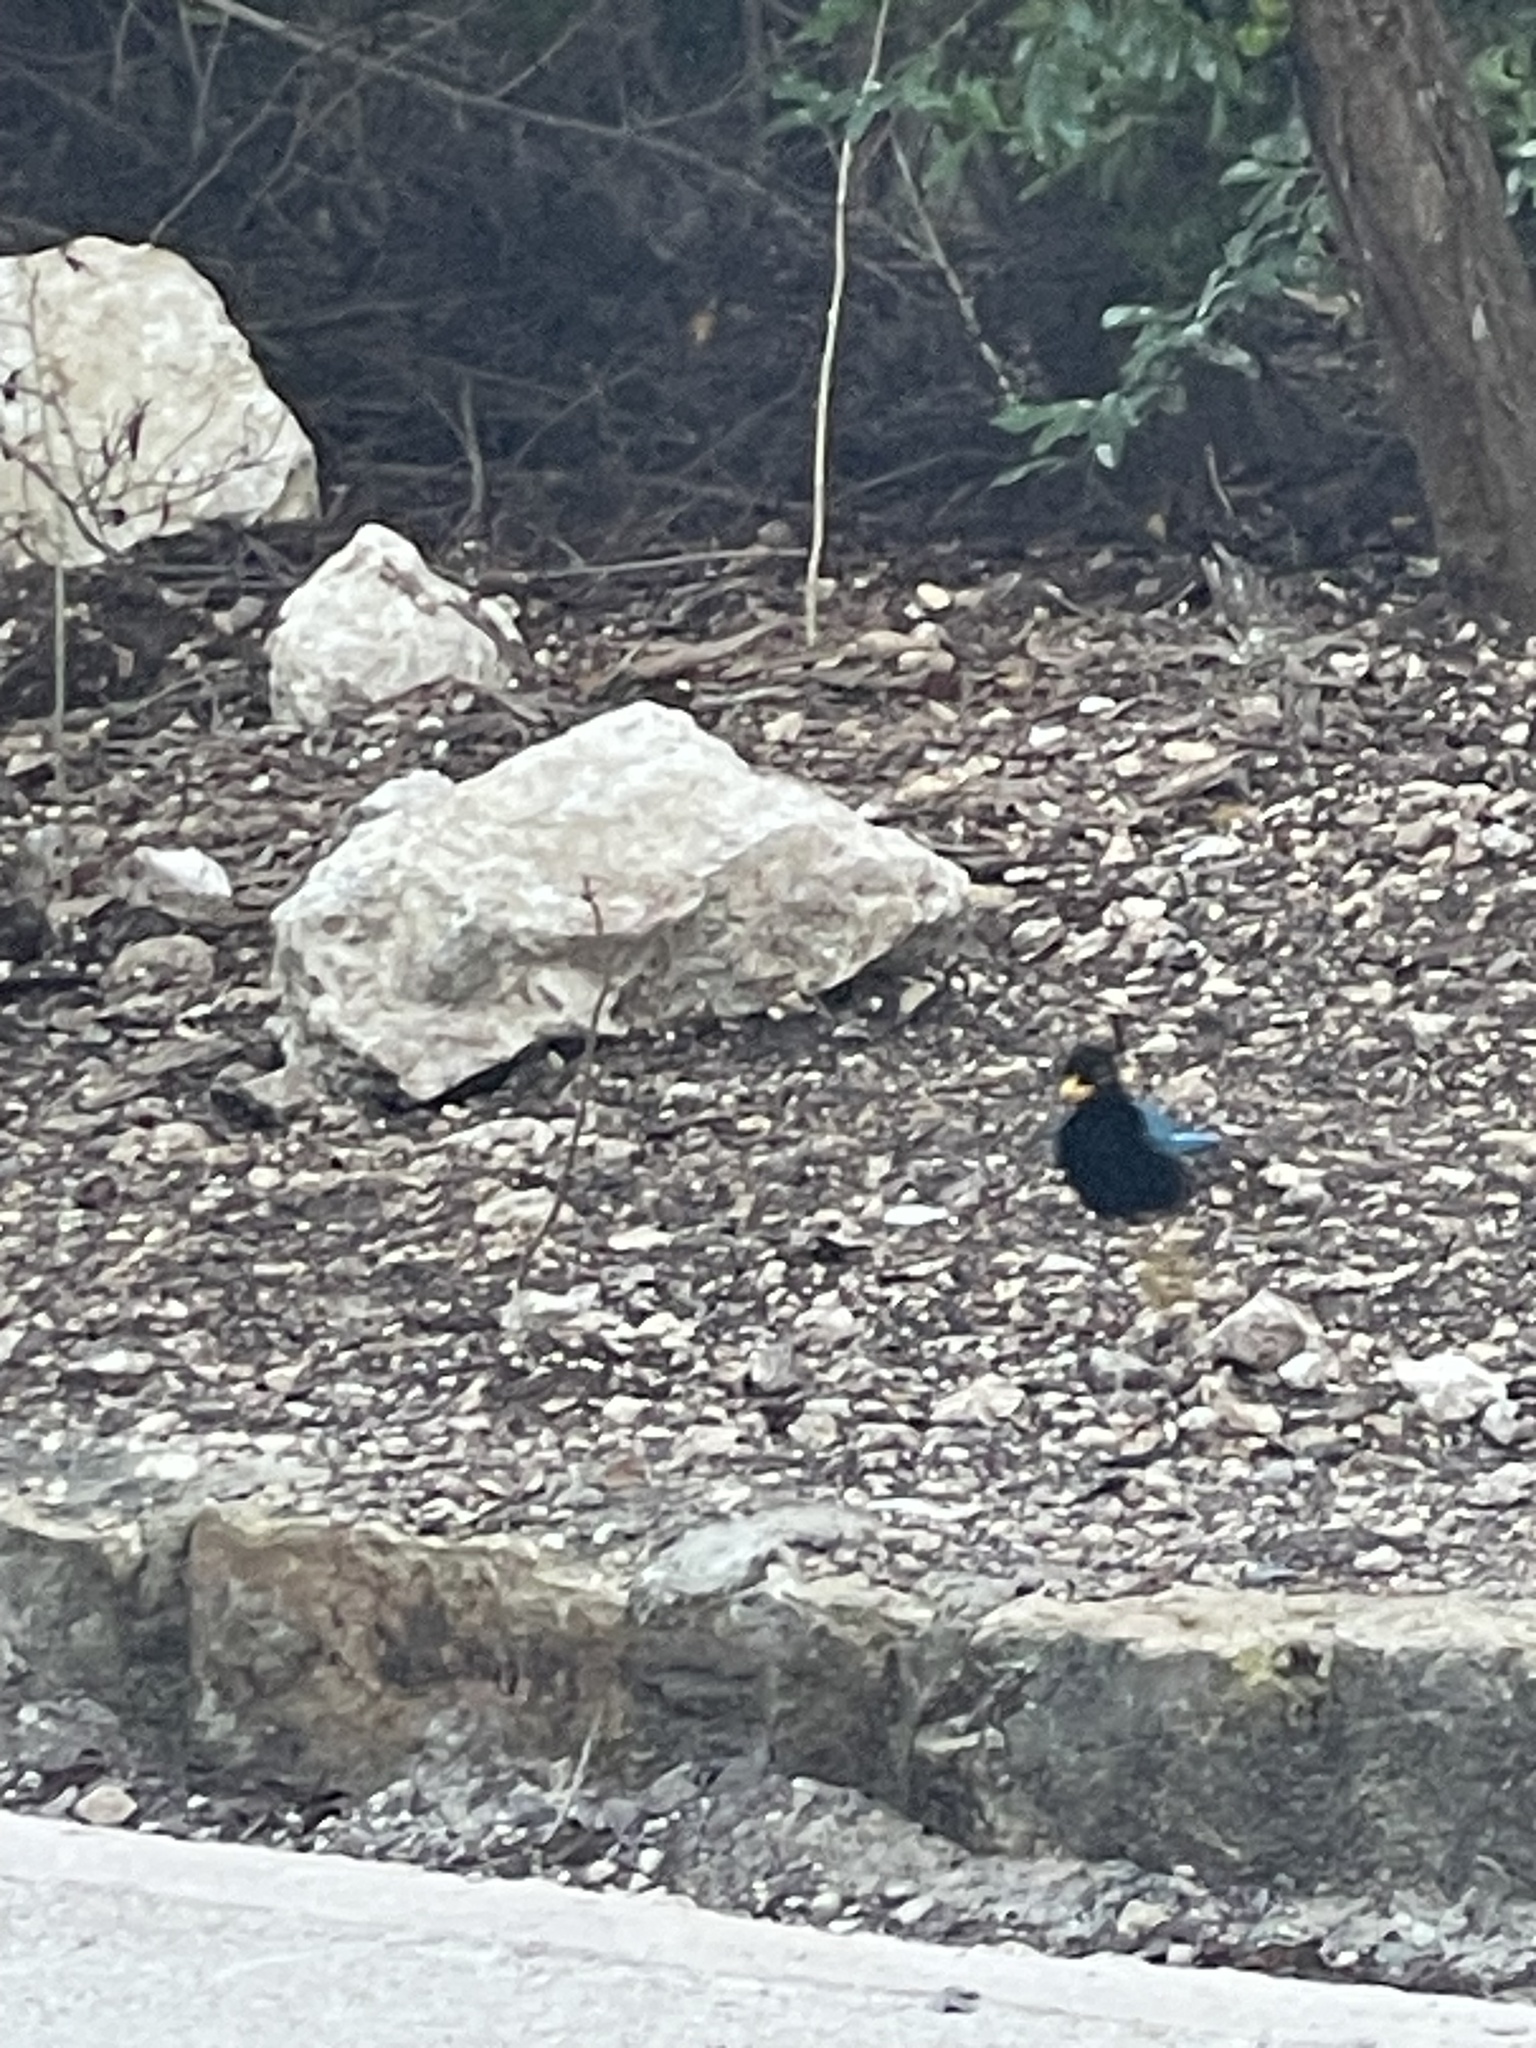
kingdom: Animalia
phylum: Chordata
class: Aves
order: Passeriformes
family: Corvidae
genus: Cyanocorax
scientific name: Cyanocorax yucatanicus
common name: Yucatan jay
